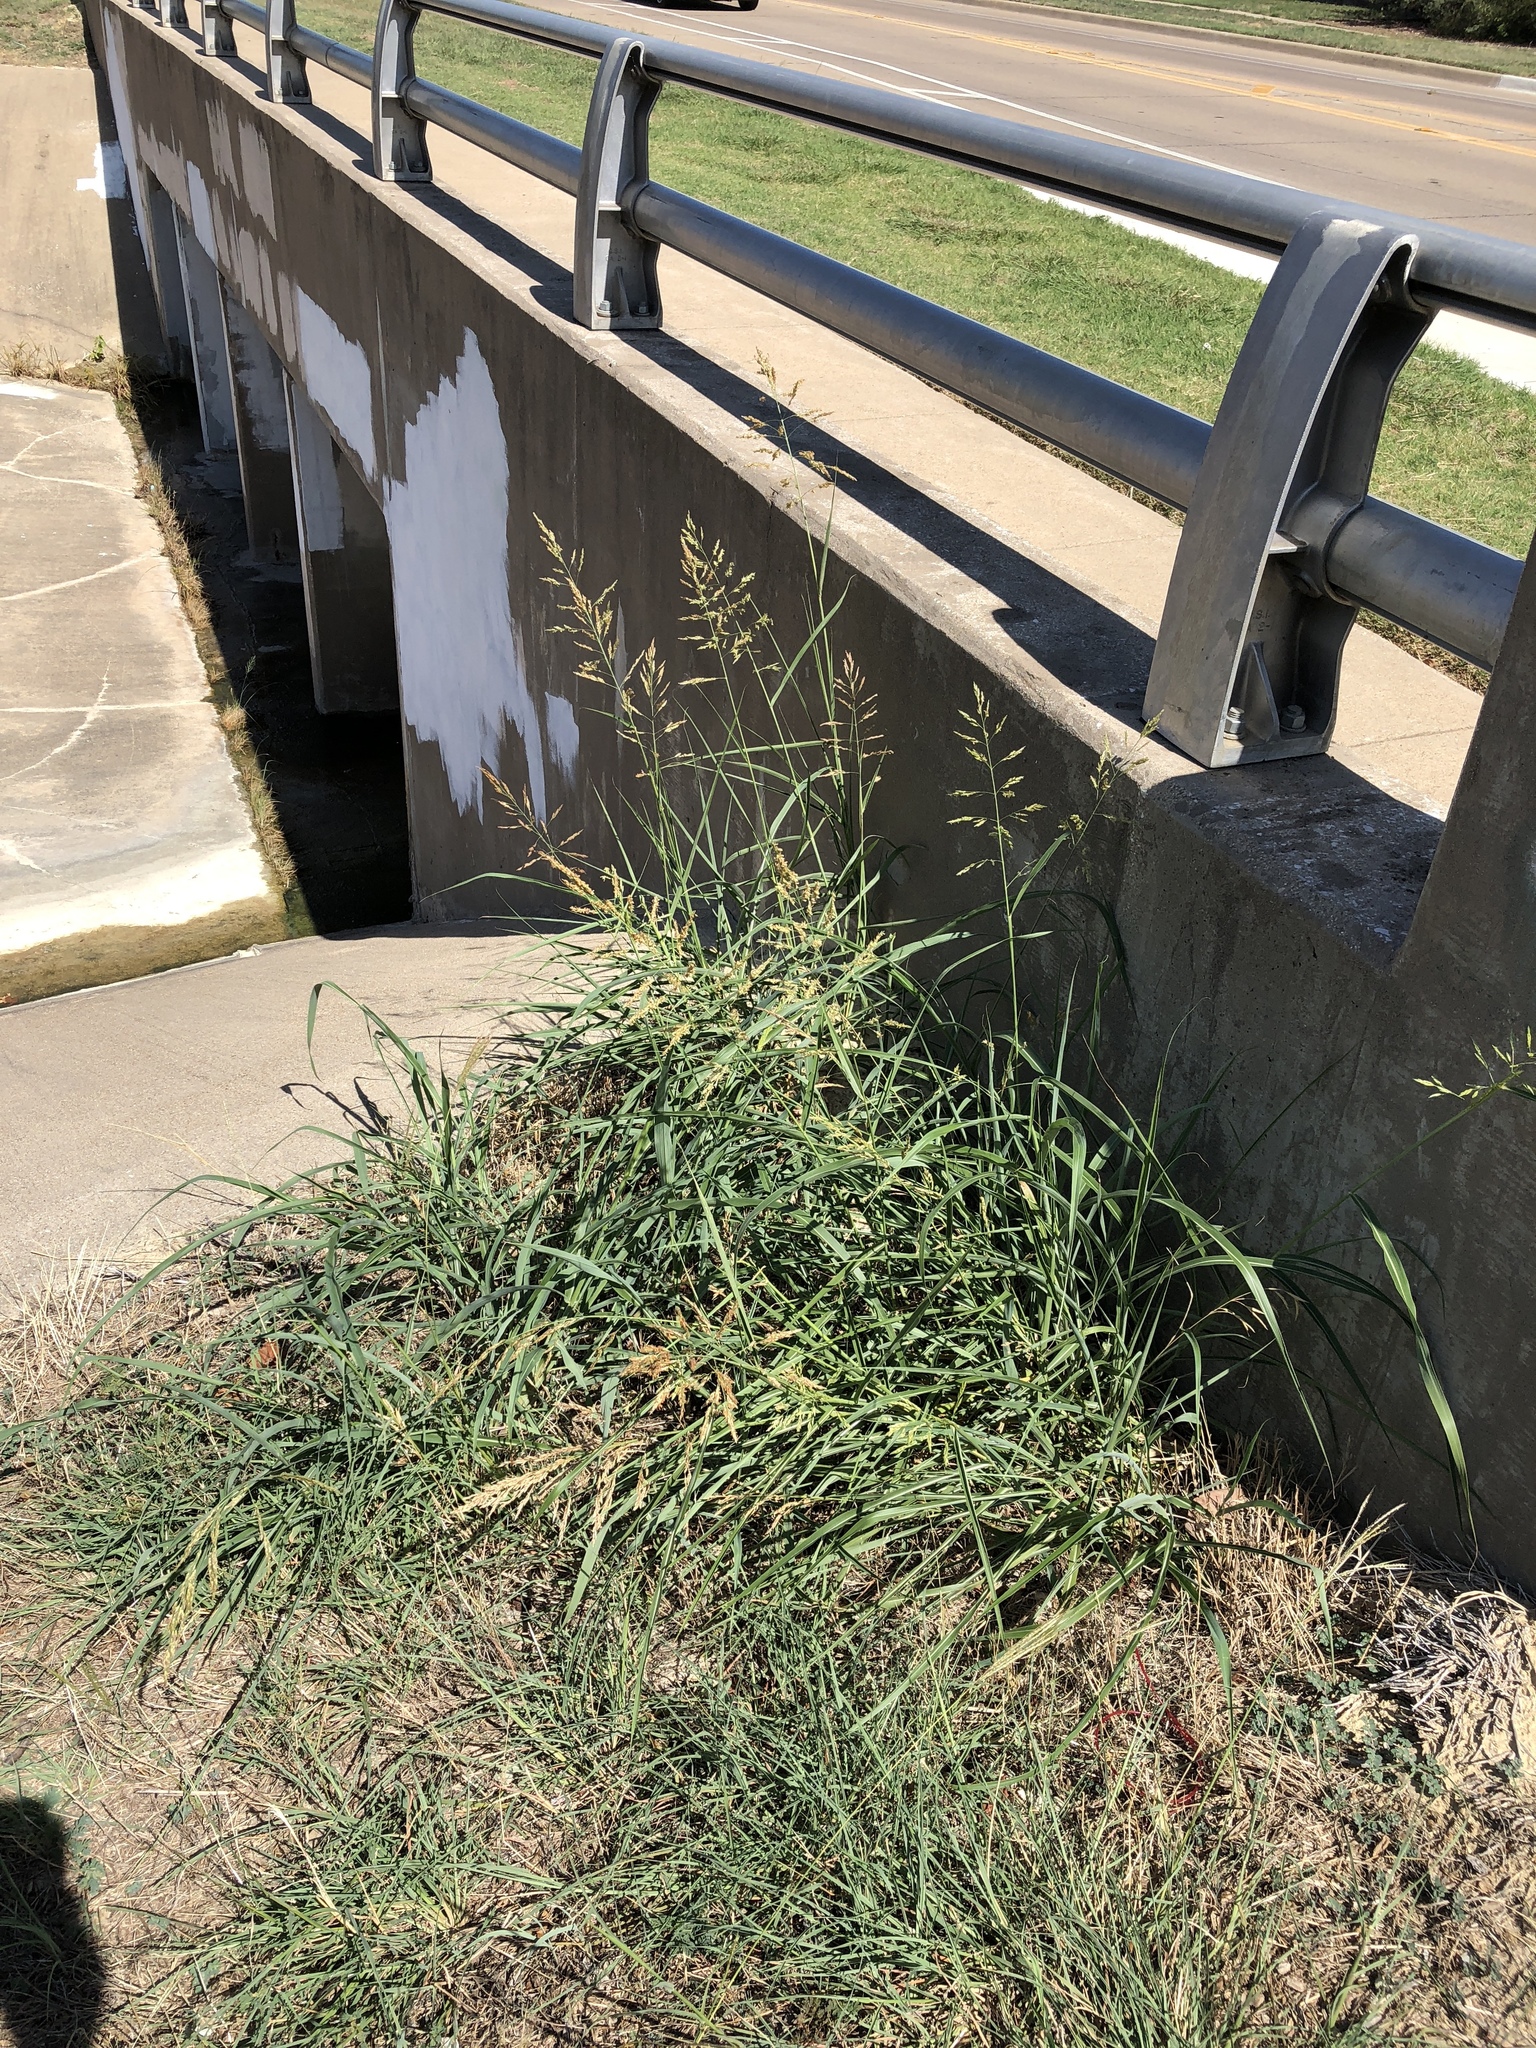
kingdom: Plantae
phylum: Tracheophyta
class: Liliopsida
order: Poales
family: Poaceae
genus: Sorghum
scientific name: Sorghum halepense
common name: Johnson-grass
